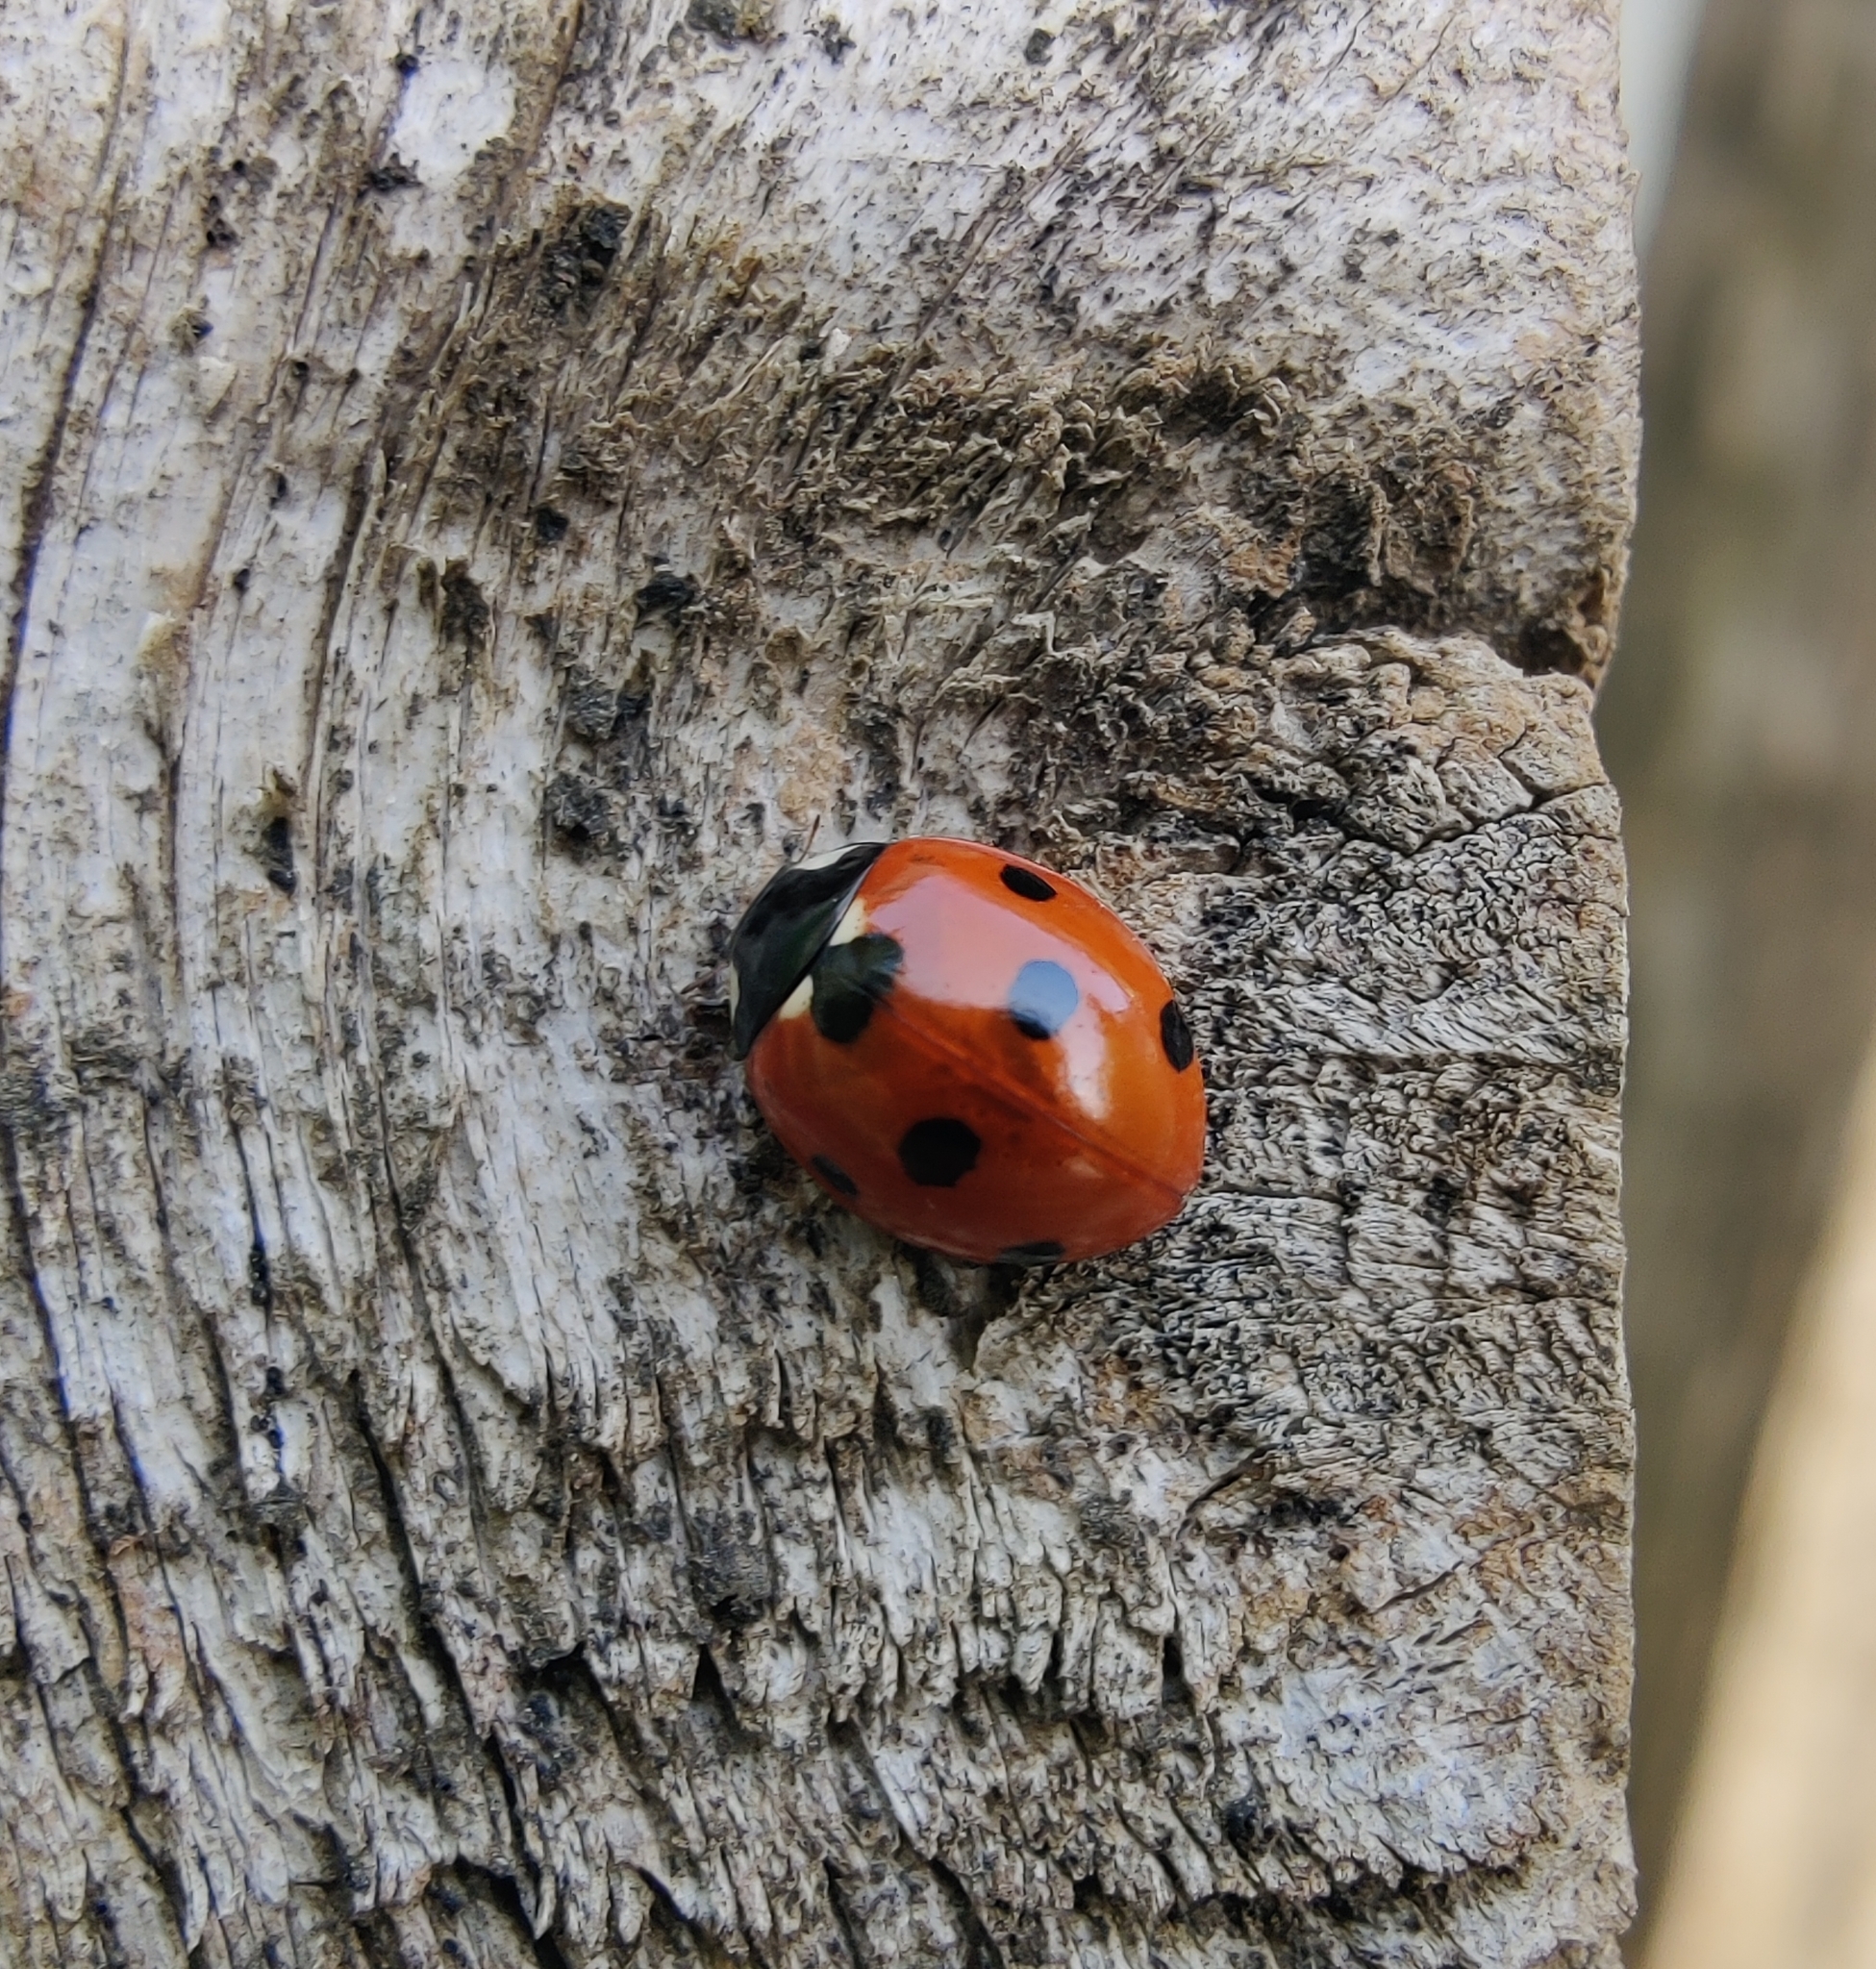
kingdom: Animalia
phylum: Arthropoda
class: Insecta
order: Coleoptera
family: Coccinellidae
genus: Coccinella
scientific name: Coccinella septempunctata
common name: Sevenspotted lady beetle
